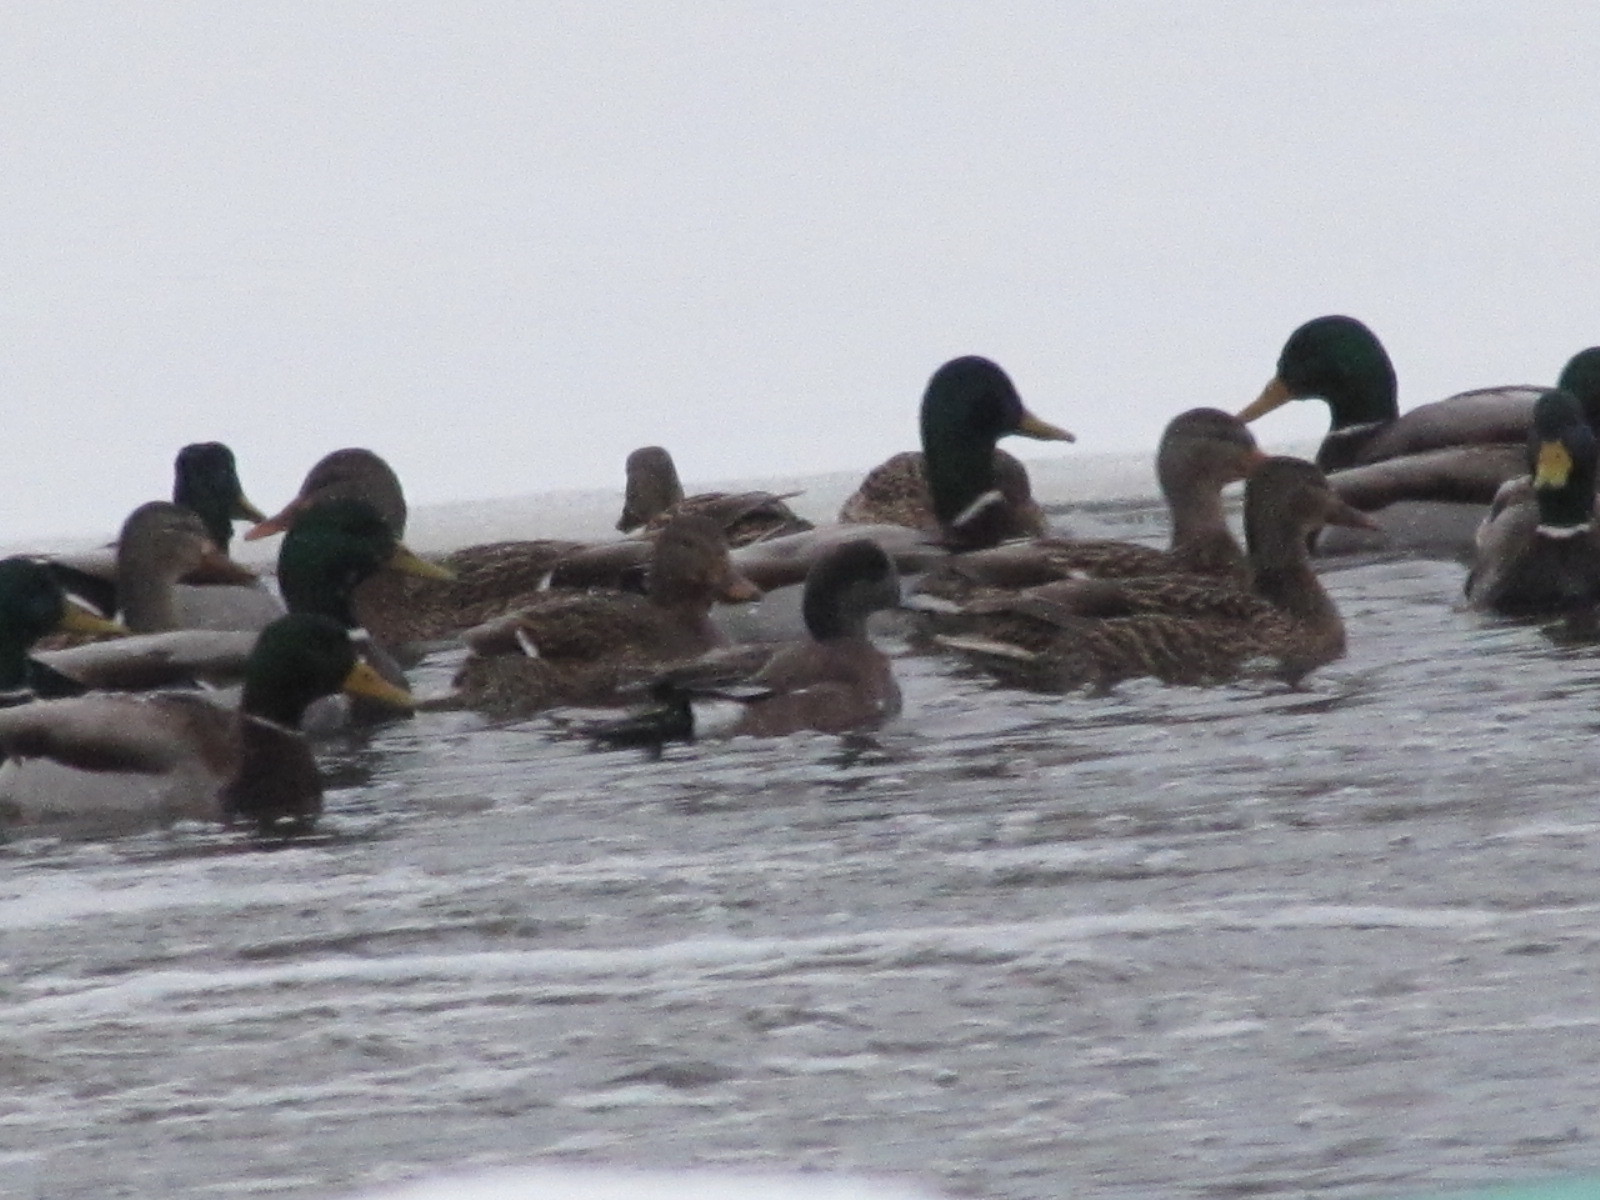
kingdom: Animalia
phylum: Chordata
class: Aves
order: Anseriformes
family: Anatidae
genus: Mareca
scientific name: Mareca americana
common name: American wigeon
